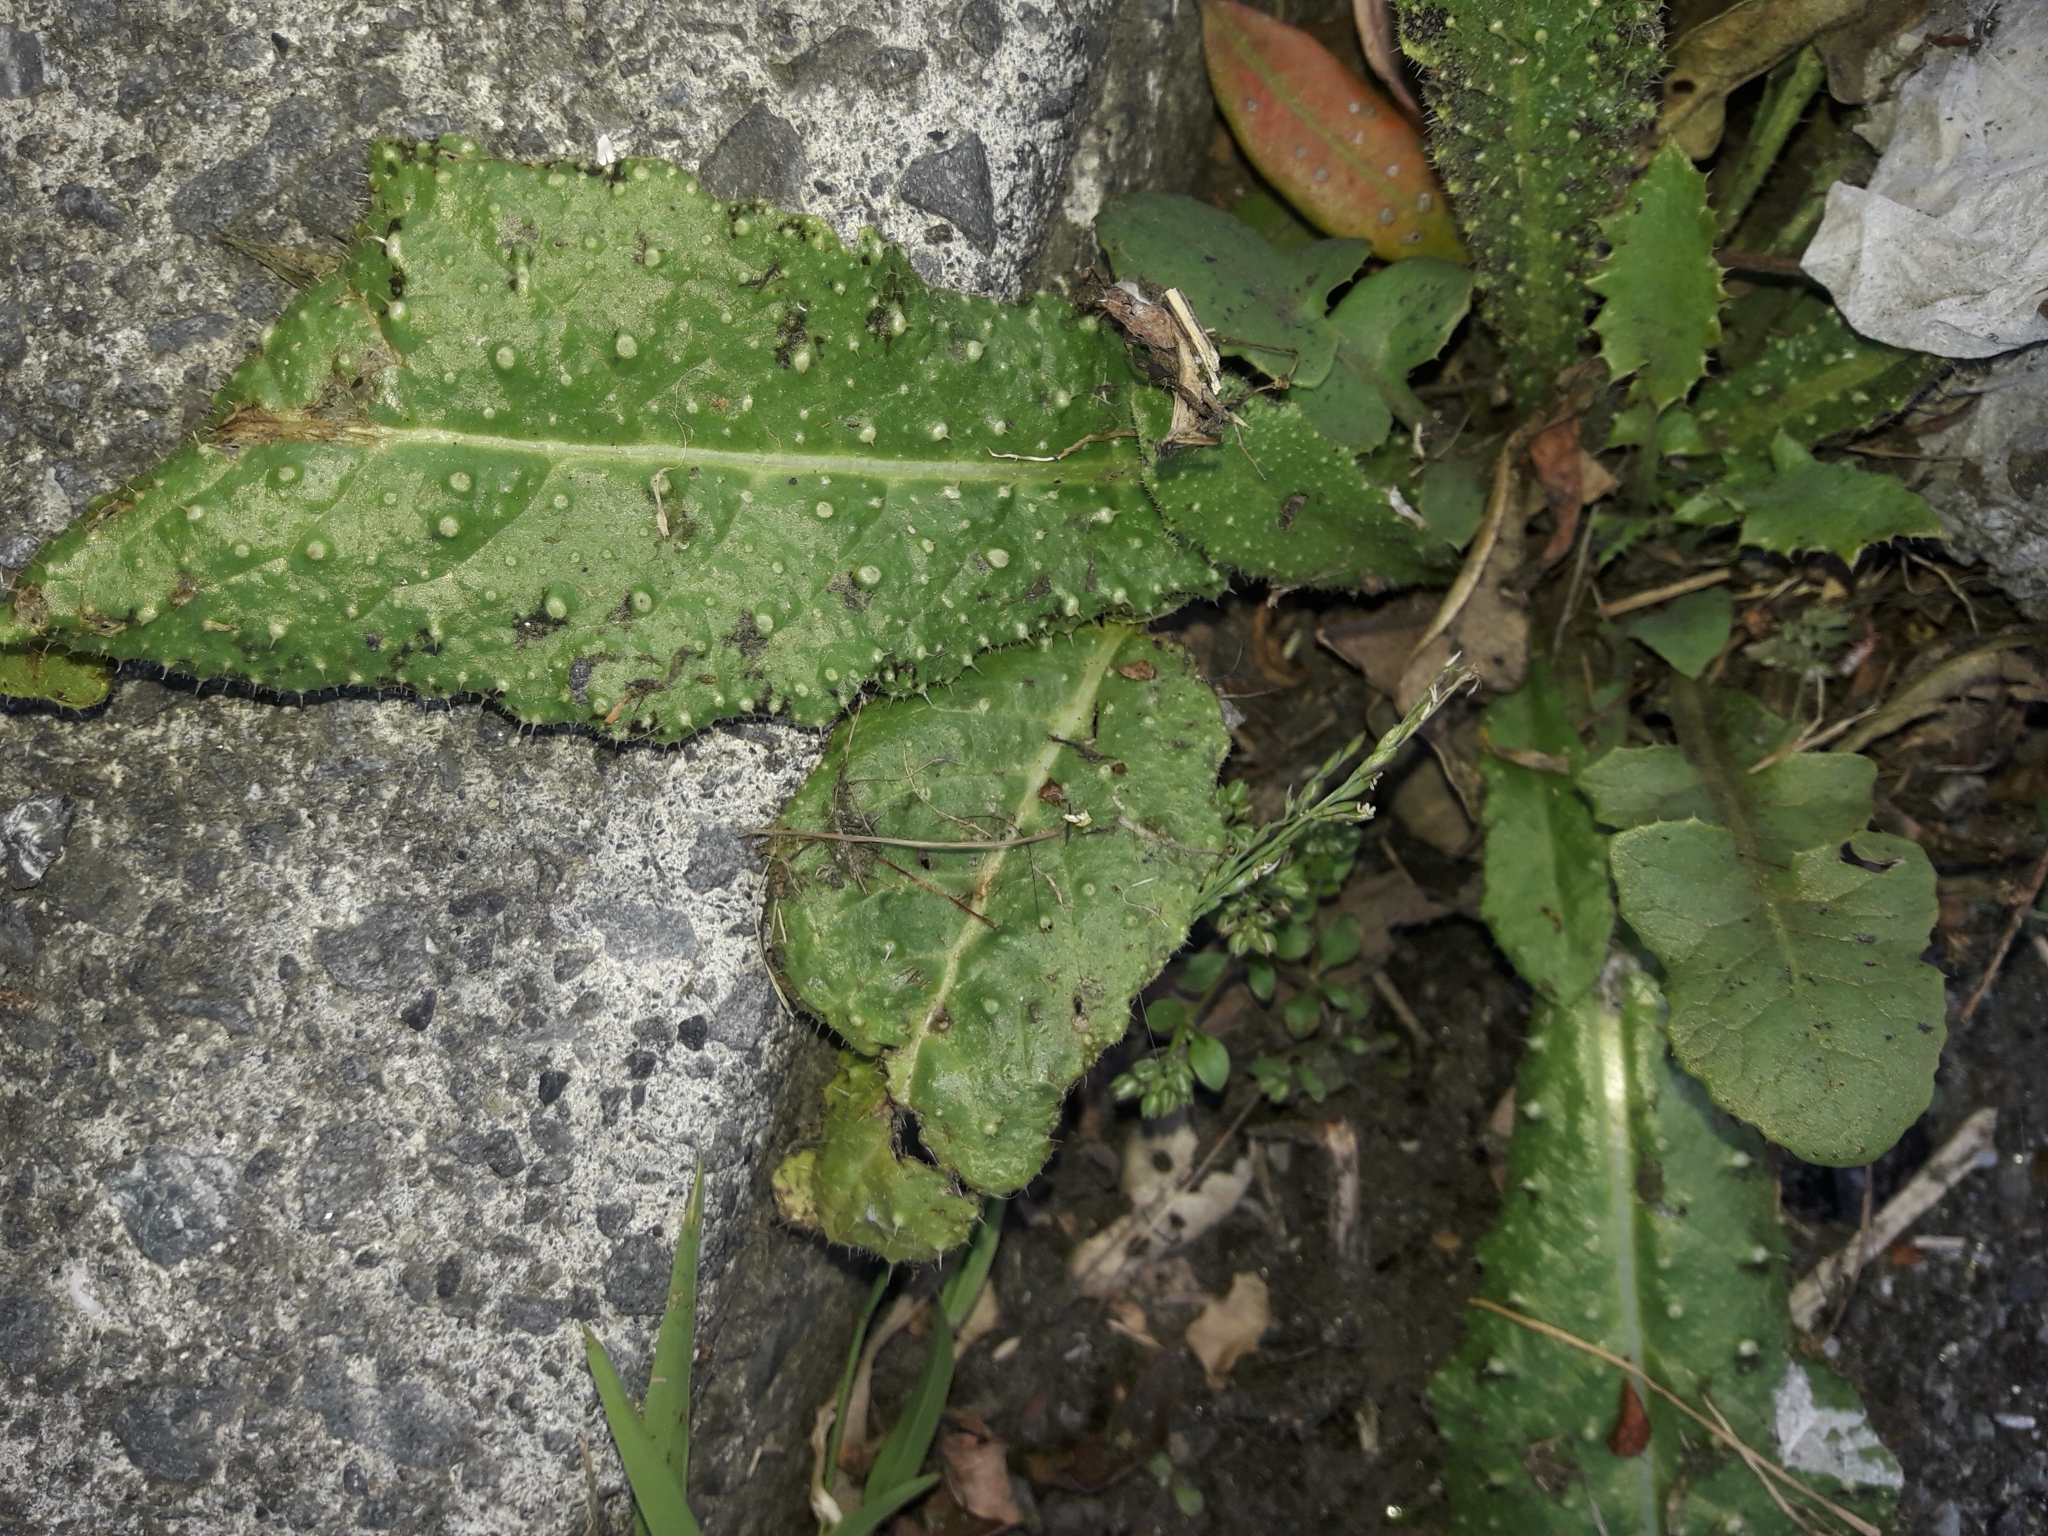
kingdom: Plantae
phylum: Tracheophyta
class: Magnoliopsida
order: Asterales
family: Asteraceae
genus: Helminthotheca
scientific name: Helminthotheca echioides
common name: Ox-tongue
